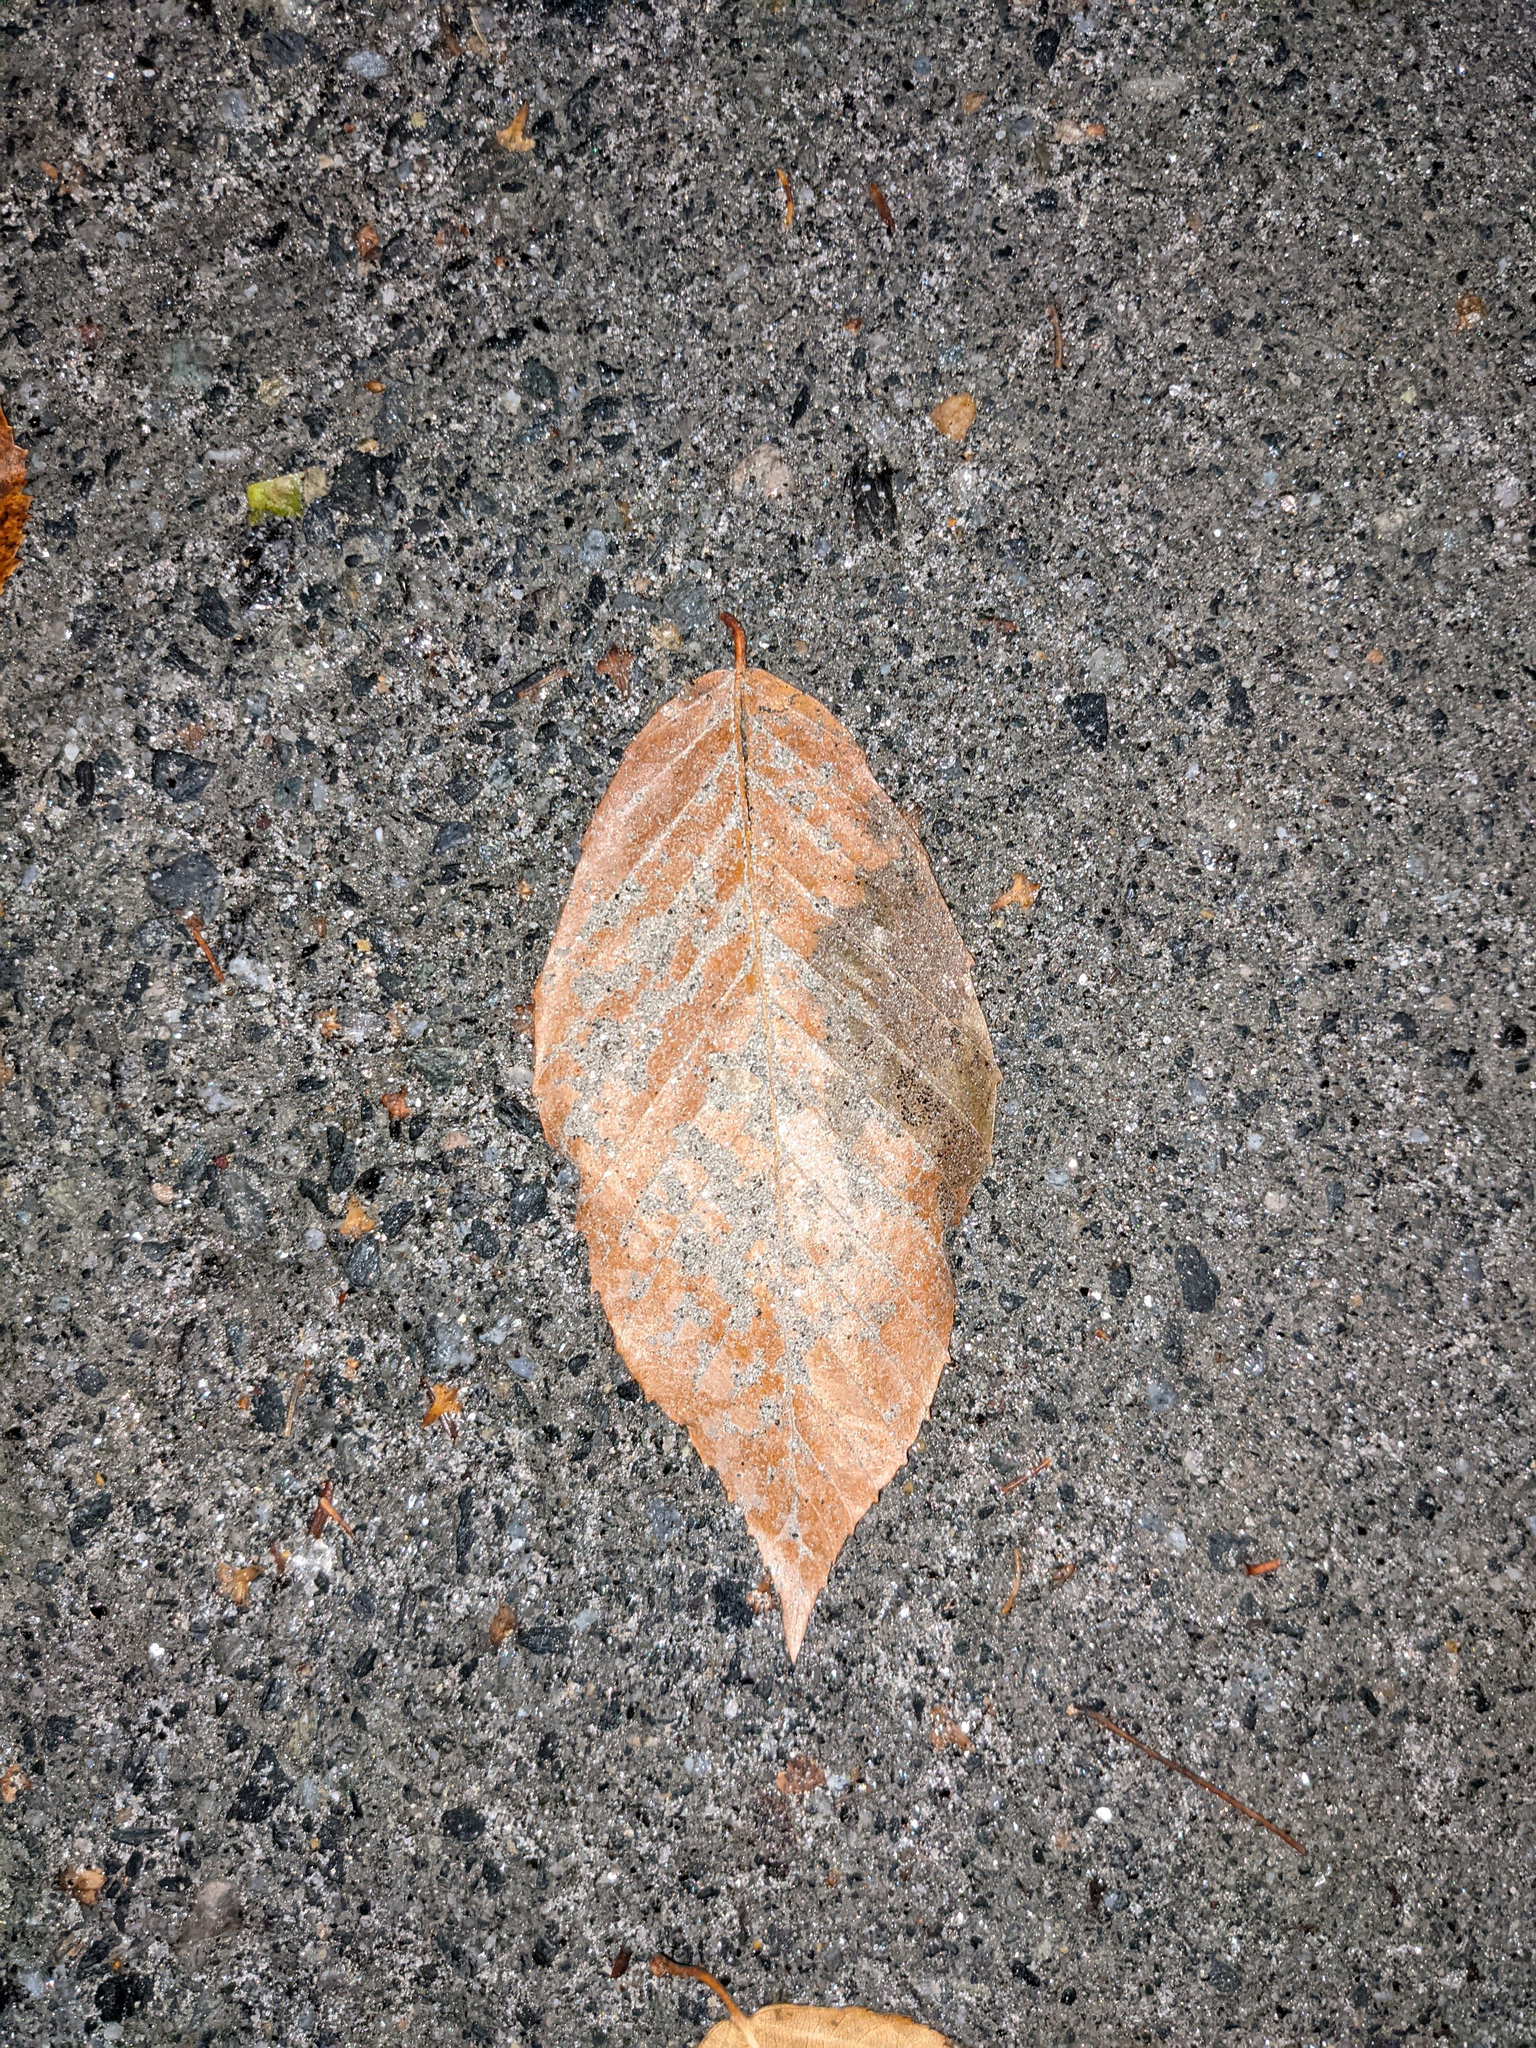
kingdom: Plantae
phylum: Tracheophyta
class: Magnoliopsida
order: Fagales
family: Fagaceae
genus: Fagus
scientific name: Fagus grandifolia
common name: American beech
